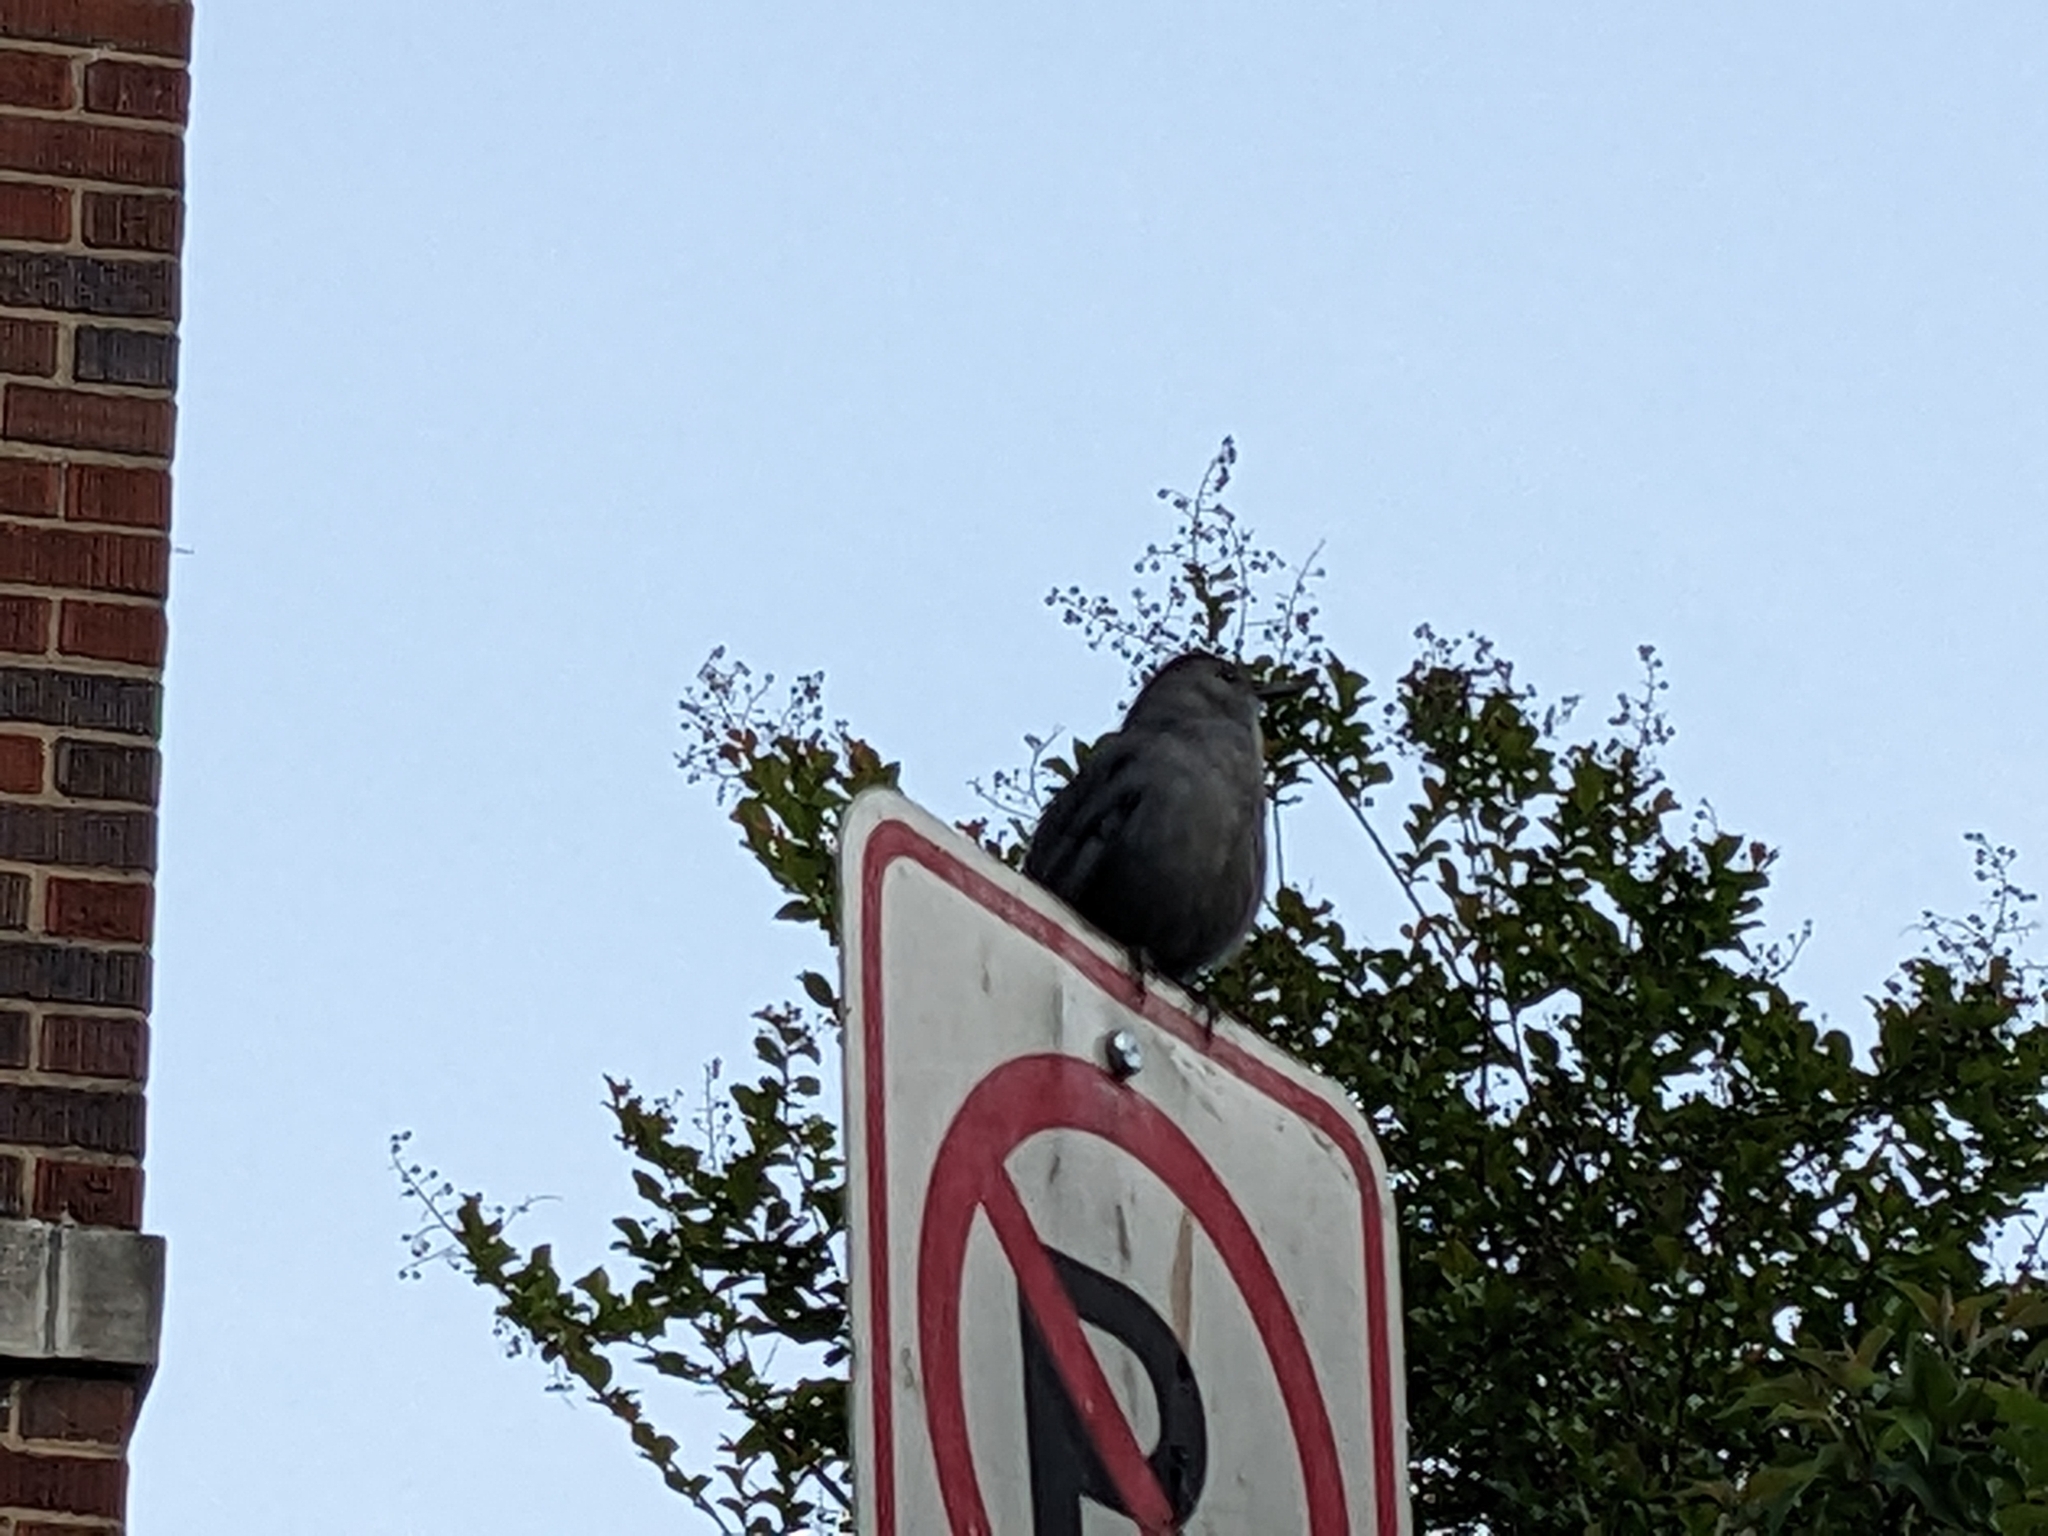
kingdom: Animalia
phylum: Chordata
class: Aves
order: Passeriformes
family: Mimidae
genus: Dumetella
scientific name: Dumetella carolinensis
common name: Gray catbird
